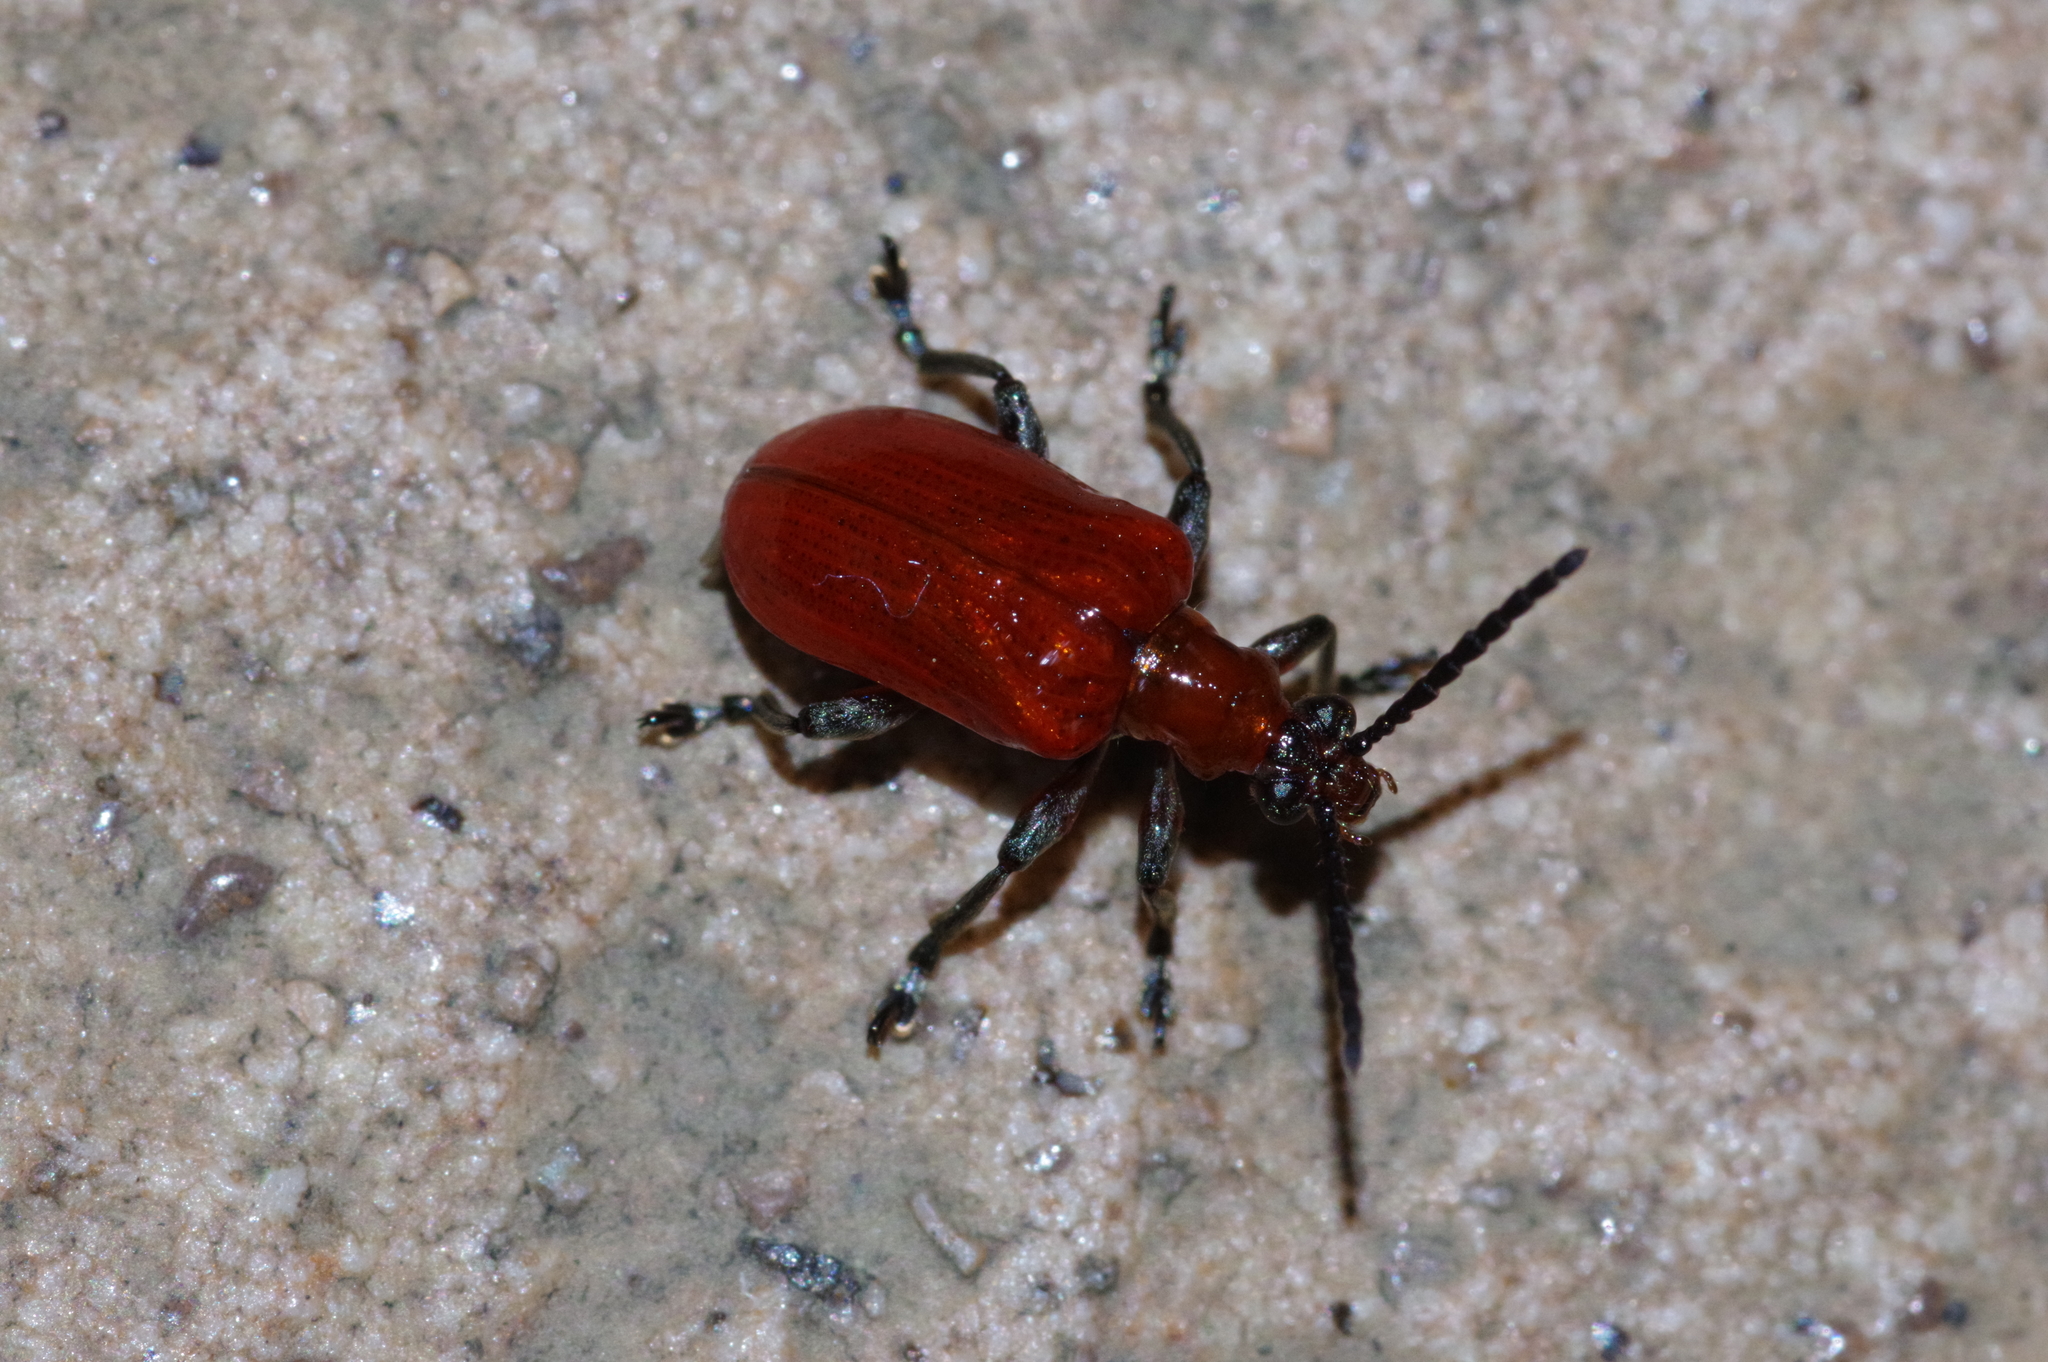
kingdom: Animalia
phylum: Arthropoda
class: Insecta
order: Coleoptera
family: Chrysomelidae
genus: Lilioceris
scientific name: Lilioceris formosana
